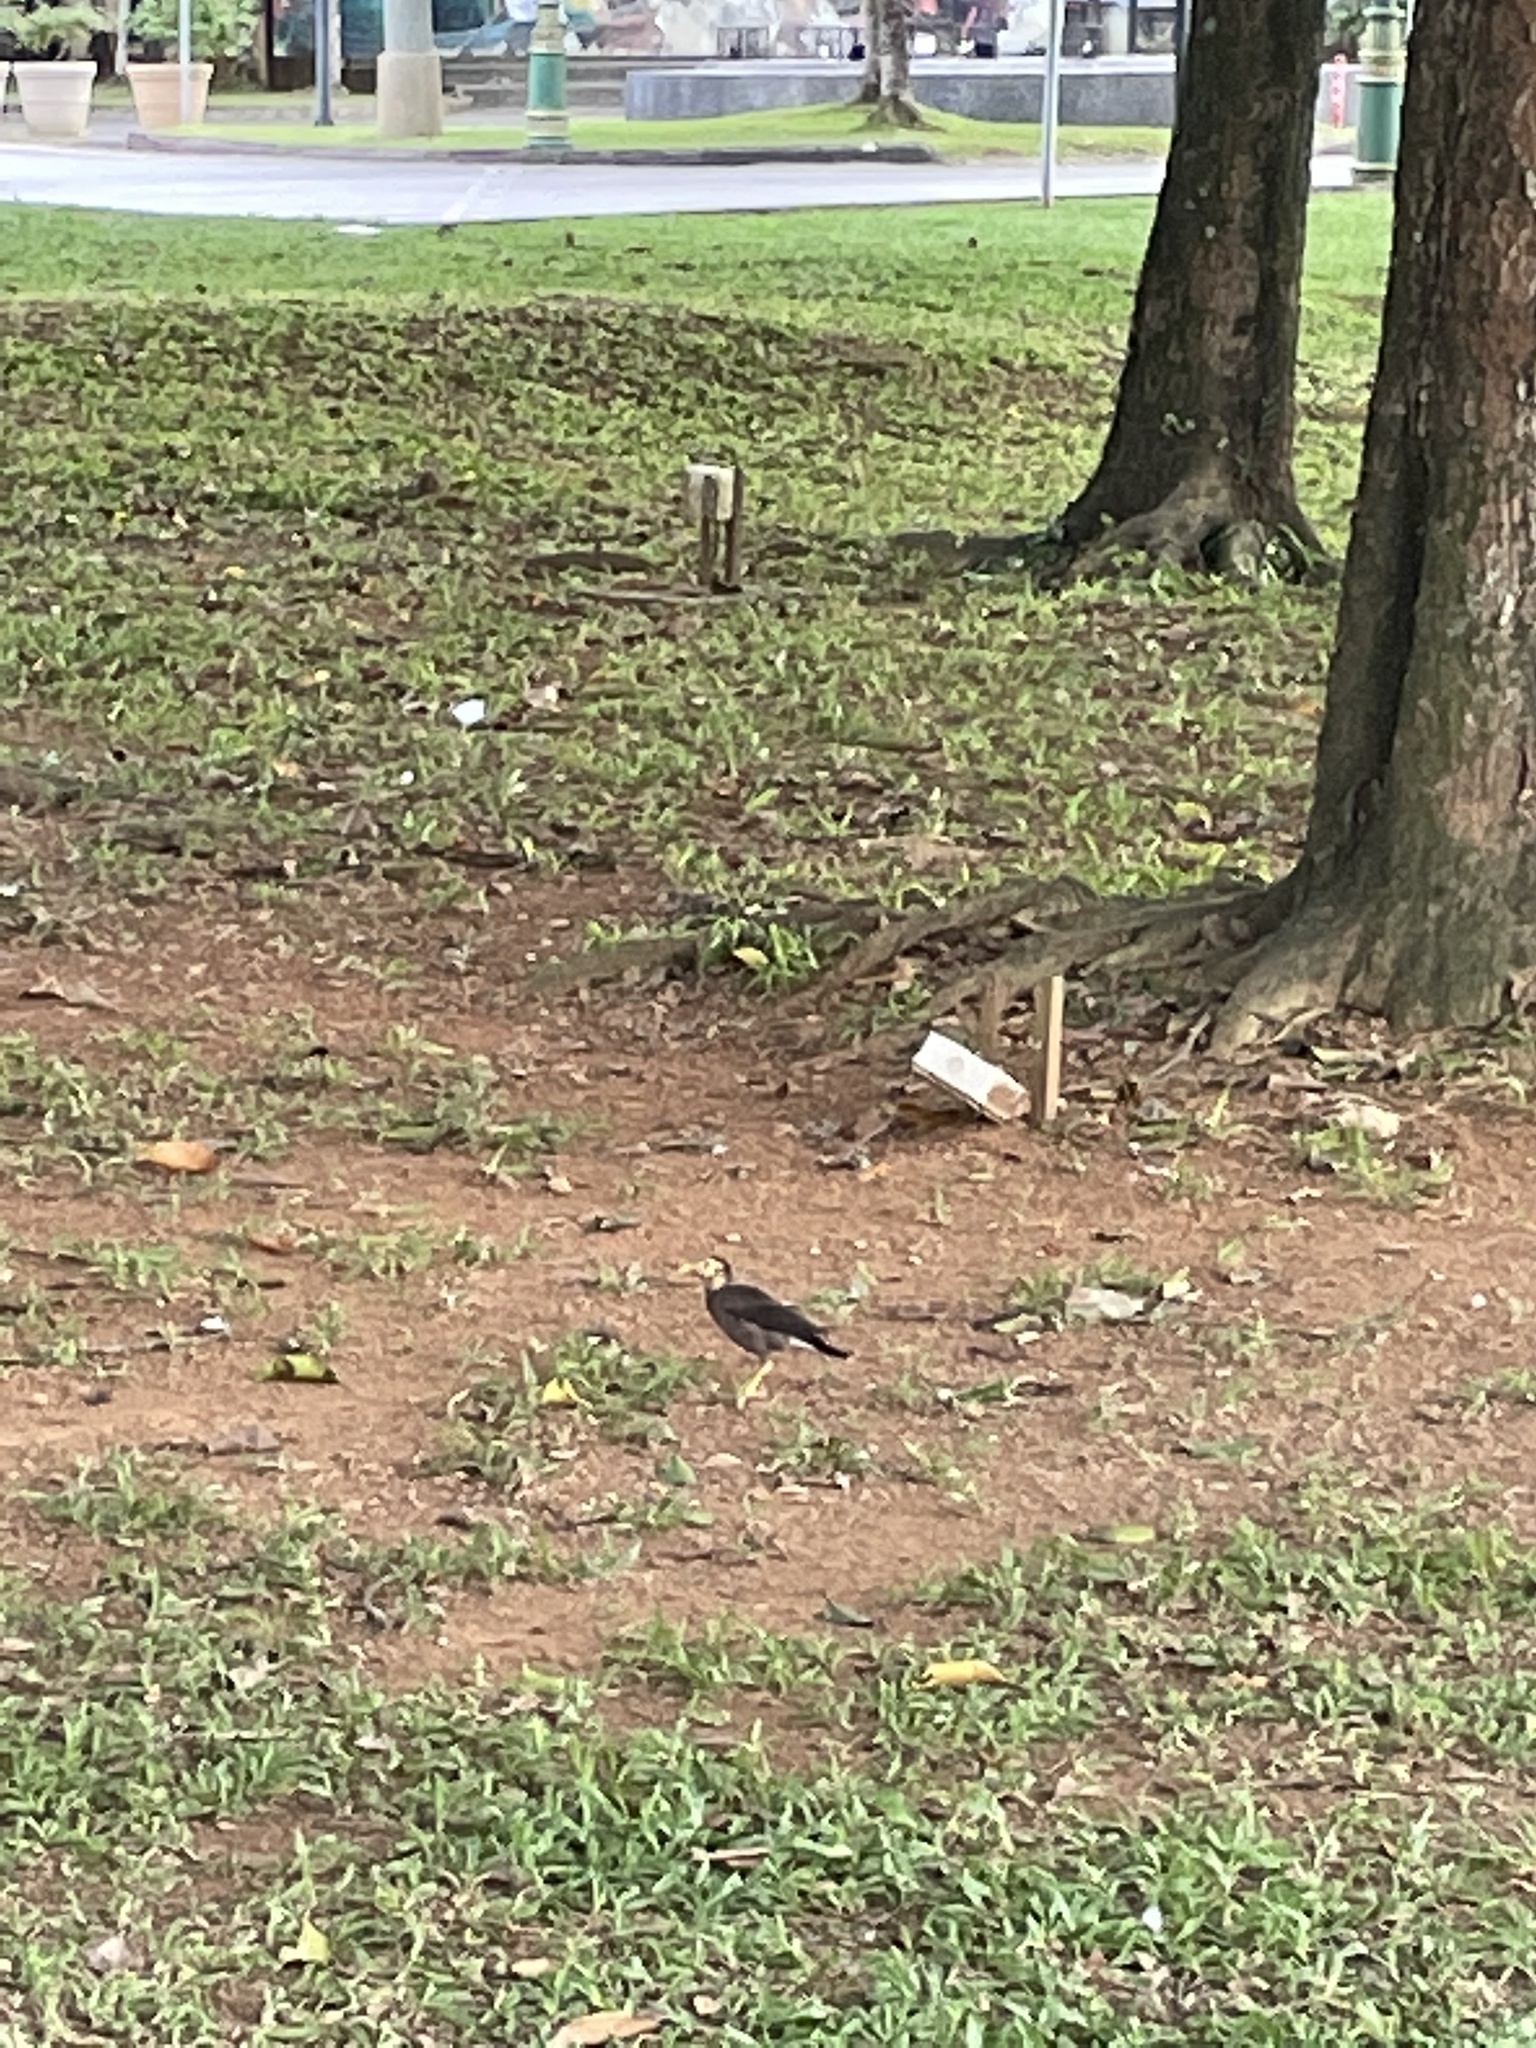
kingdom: Animalia
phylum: Chordata
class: Aves
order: Passeriformes
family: Sturnidae
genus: Acridotheres
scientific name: Acridotheres tristis
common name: Common myna
